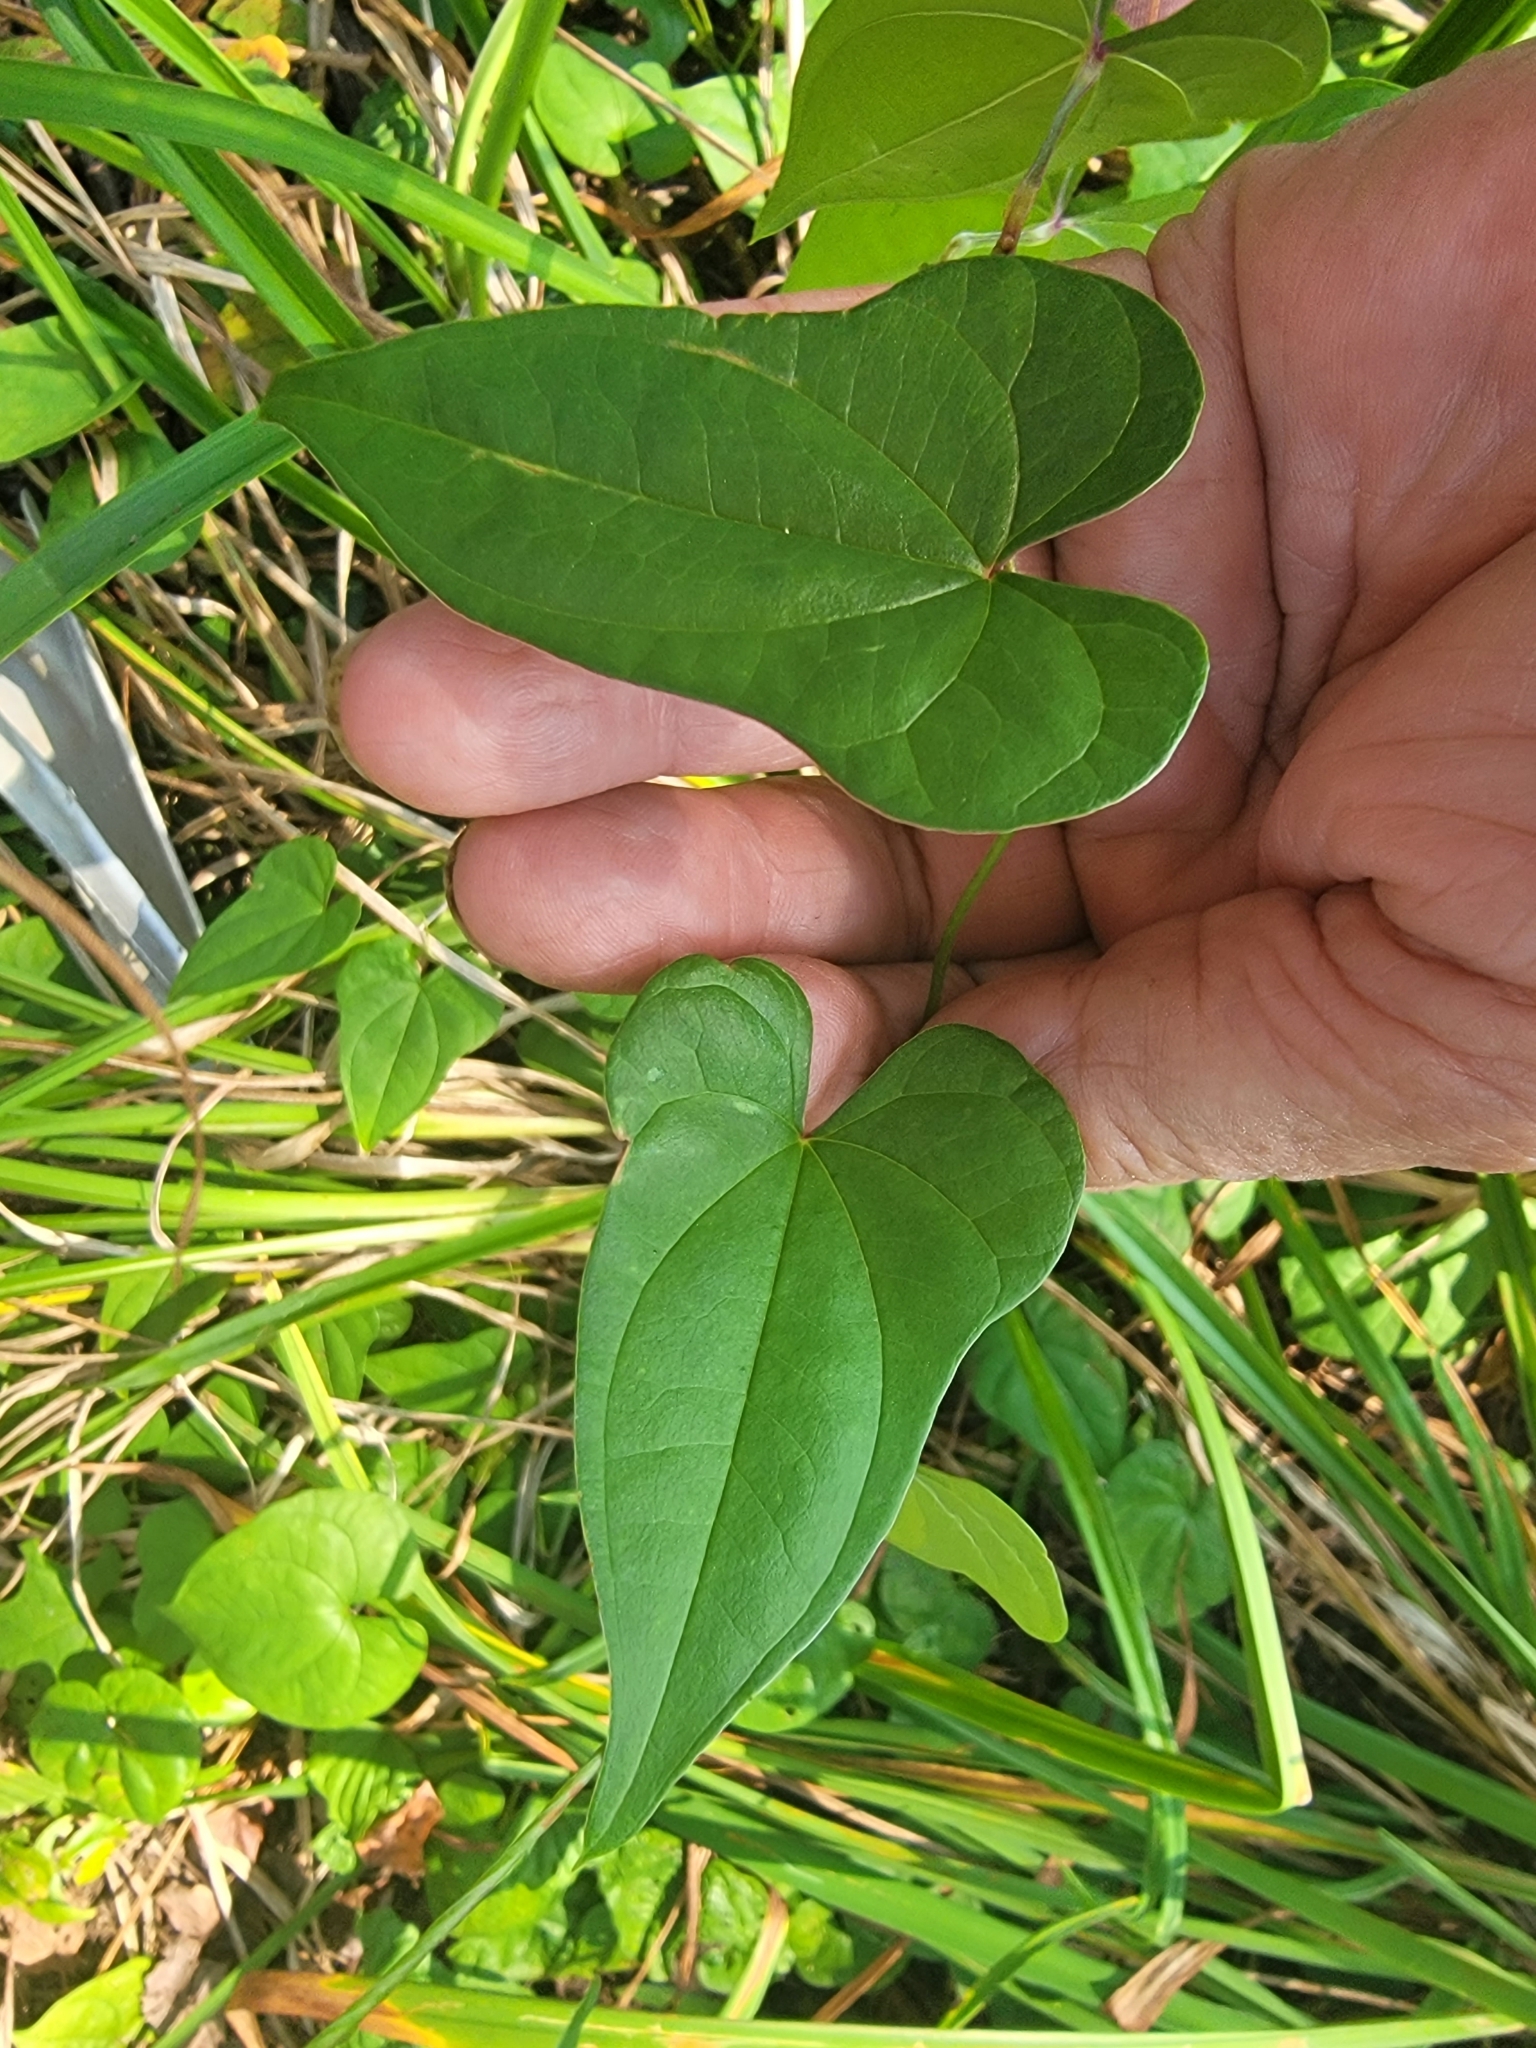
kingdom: Plantae
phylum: Tracheophyta
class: Liliopsida
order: Dioscoreales
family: Dioscoreaceae
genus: Dioscorea
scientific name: Dioscorea polystachya
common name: Chinese yam
